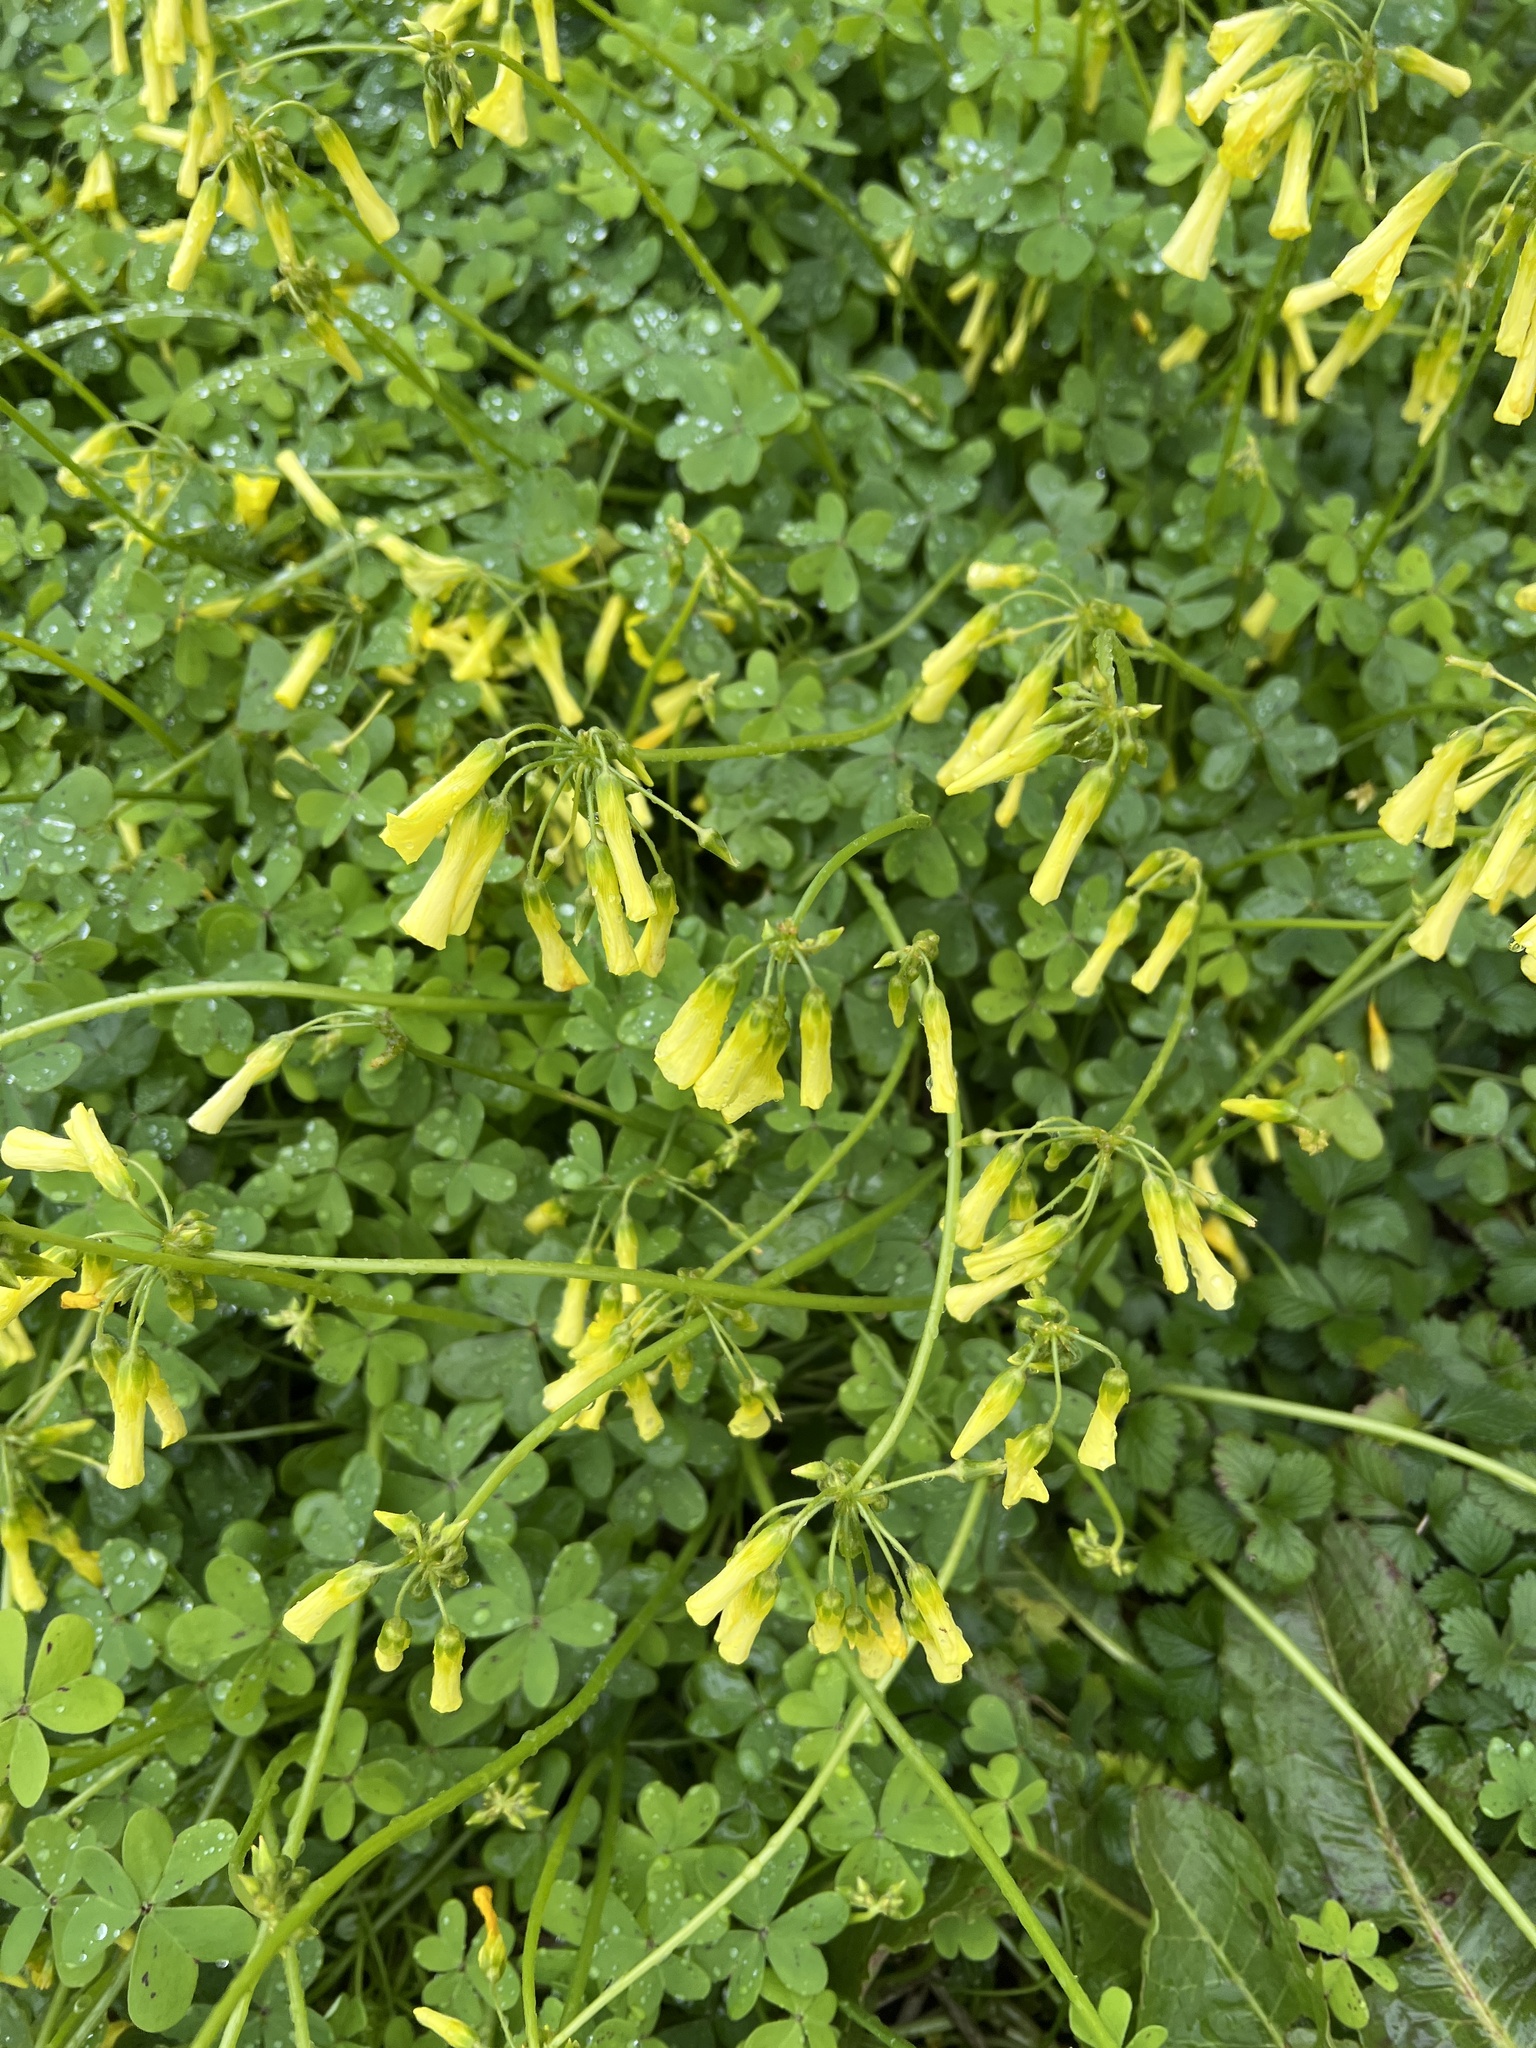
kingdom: Plantae
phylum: Tracheophyta
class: Magnoliopsida
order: Oxalidales
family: Oxalidaceae
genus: Oxalis
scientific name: Oxalis pes-caprae
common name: Bermuda-buttercup
